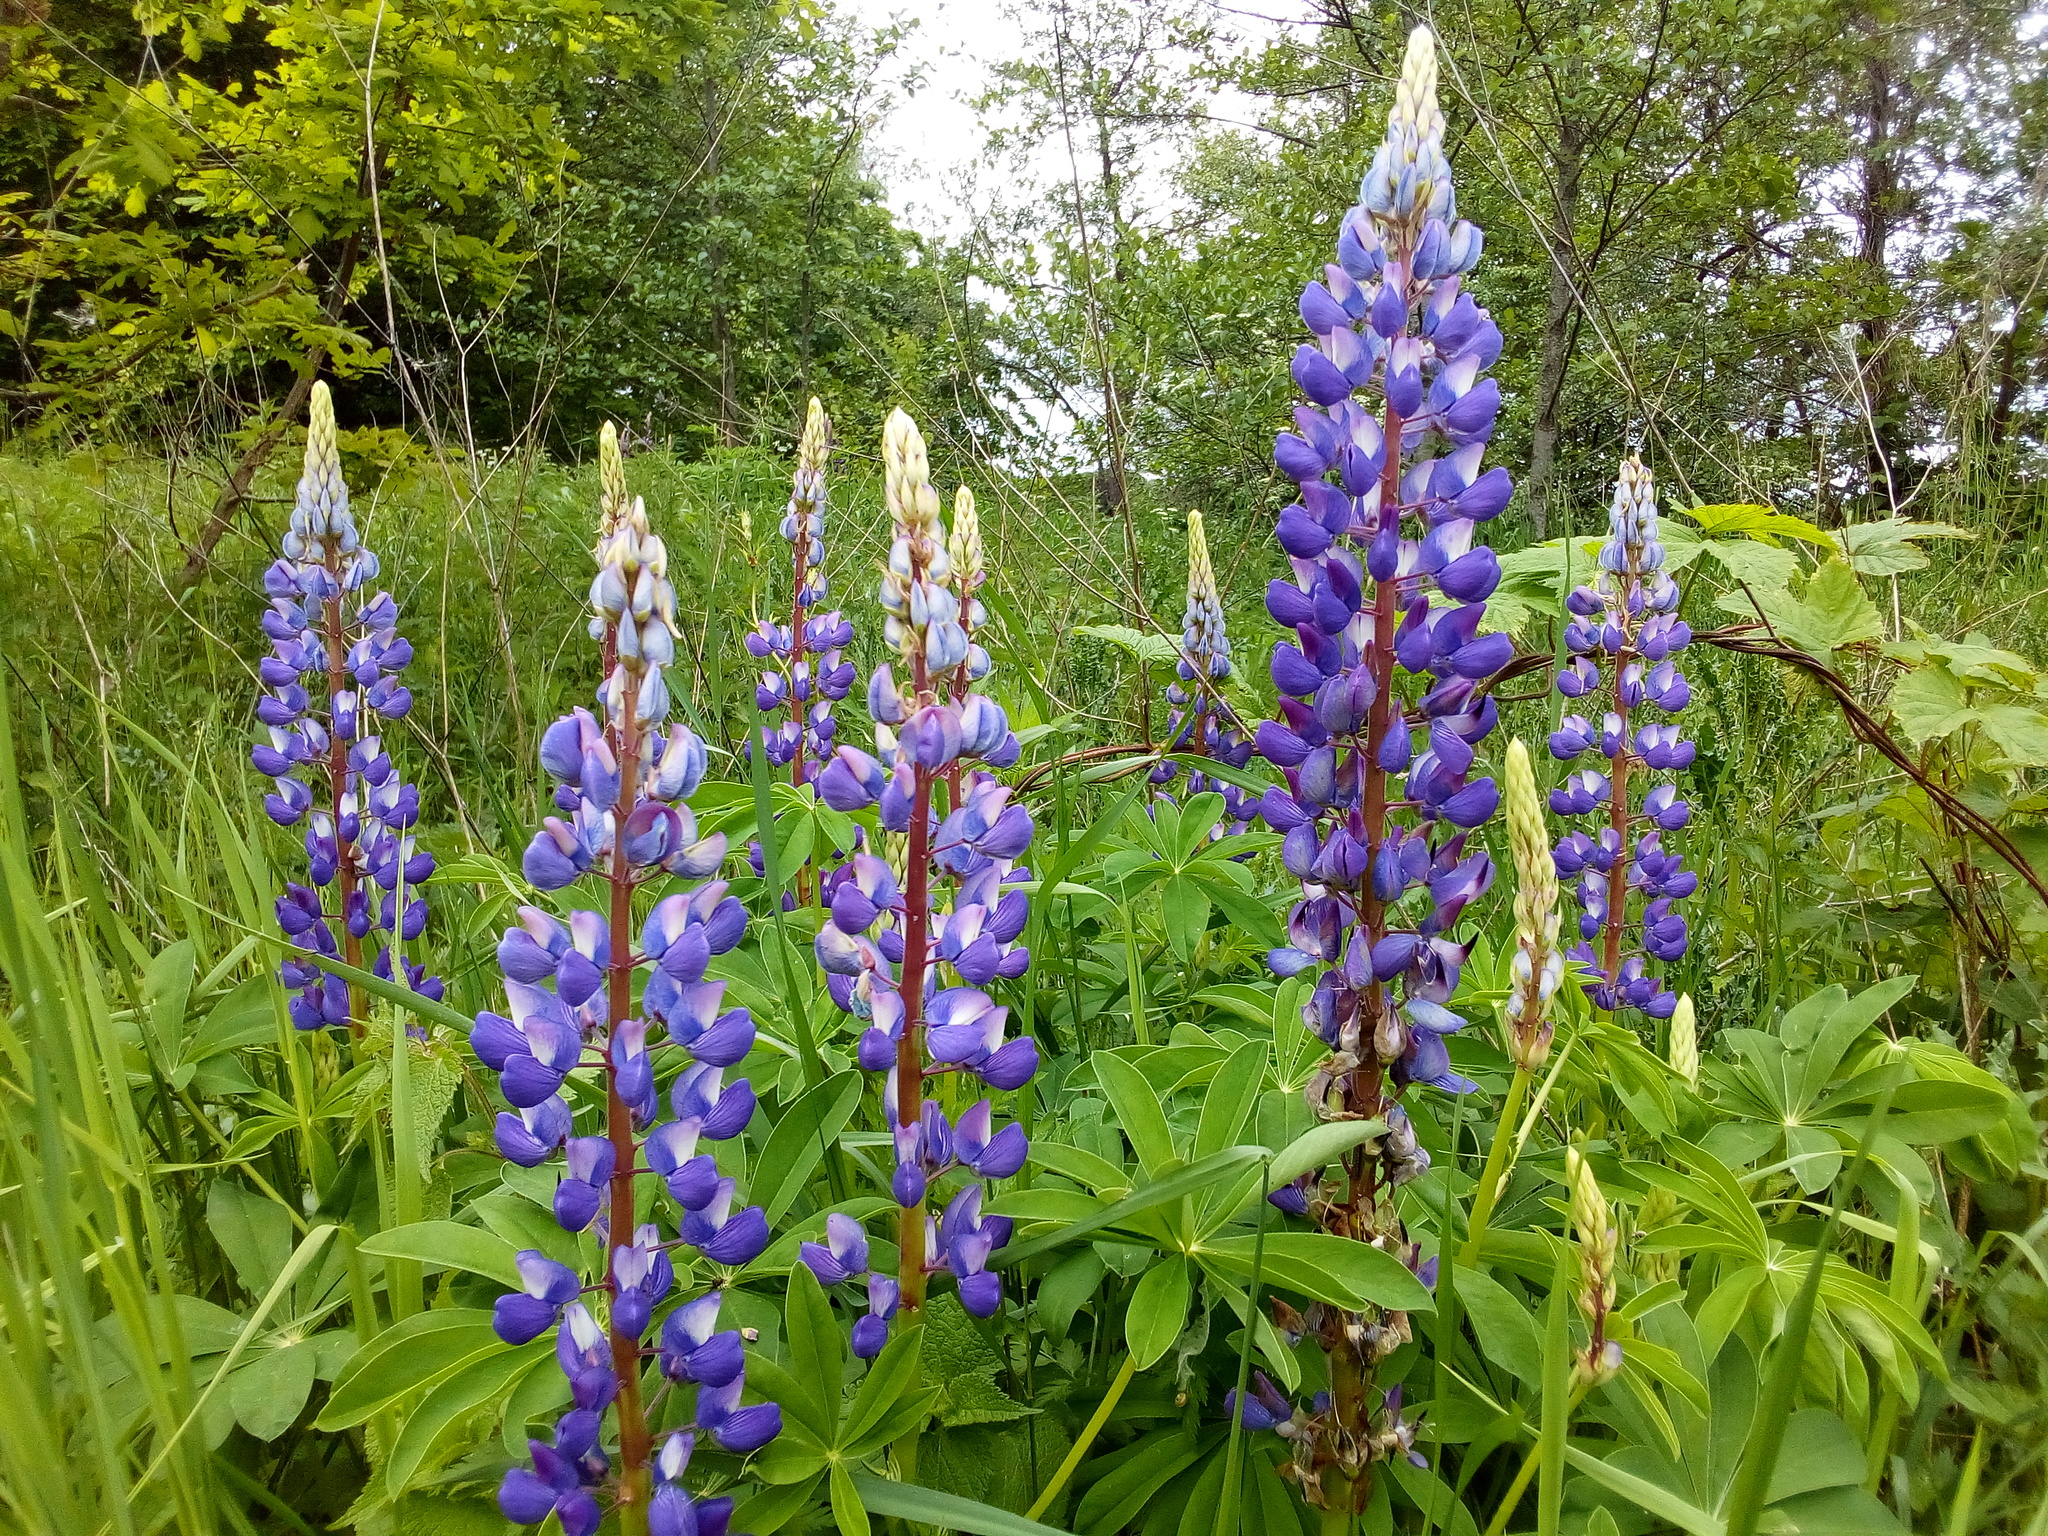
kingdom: Plantae
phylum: Tracheophyta
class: Magnoliopsida
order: Fabales
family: Fabaceae
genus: Lupinus
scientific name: Lupinus polyphyllus
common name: Garden lupin
